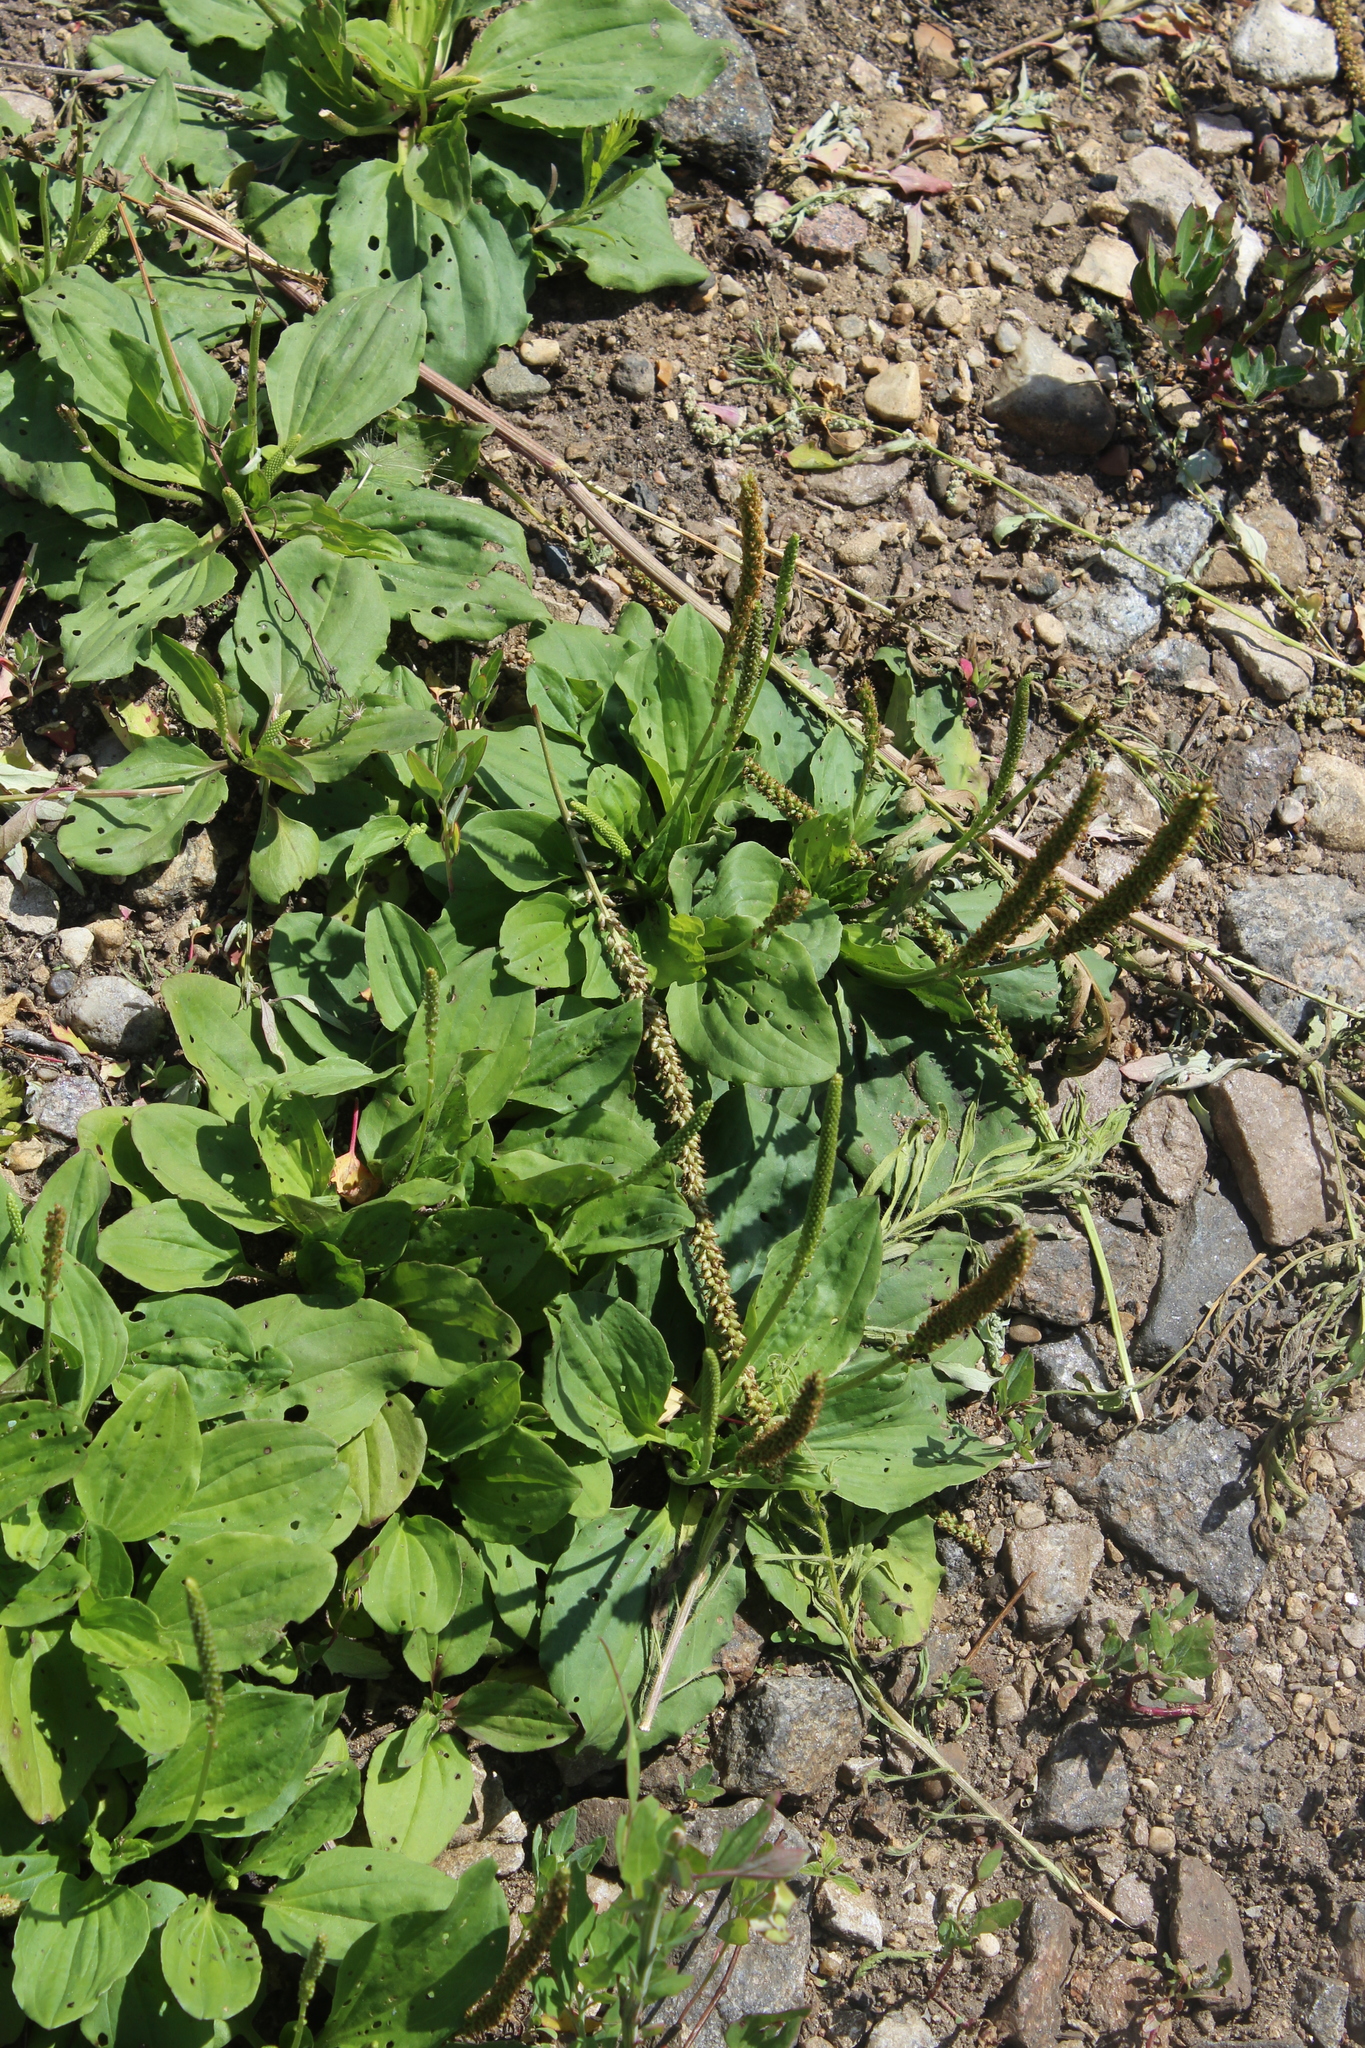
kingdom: Plantae
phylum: Tracheophyta
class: Magnoliopsida
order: Lamiales
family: Plantaginaceae
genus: Plantago
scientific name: Plantago major
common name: Common plantain
